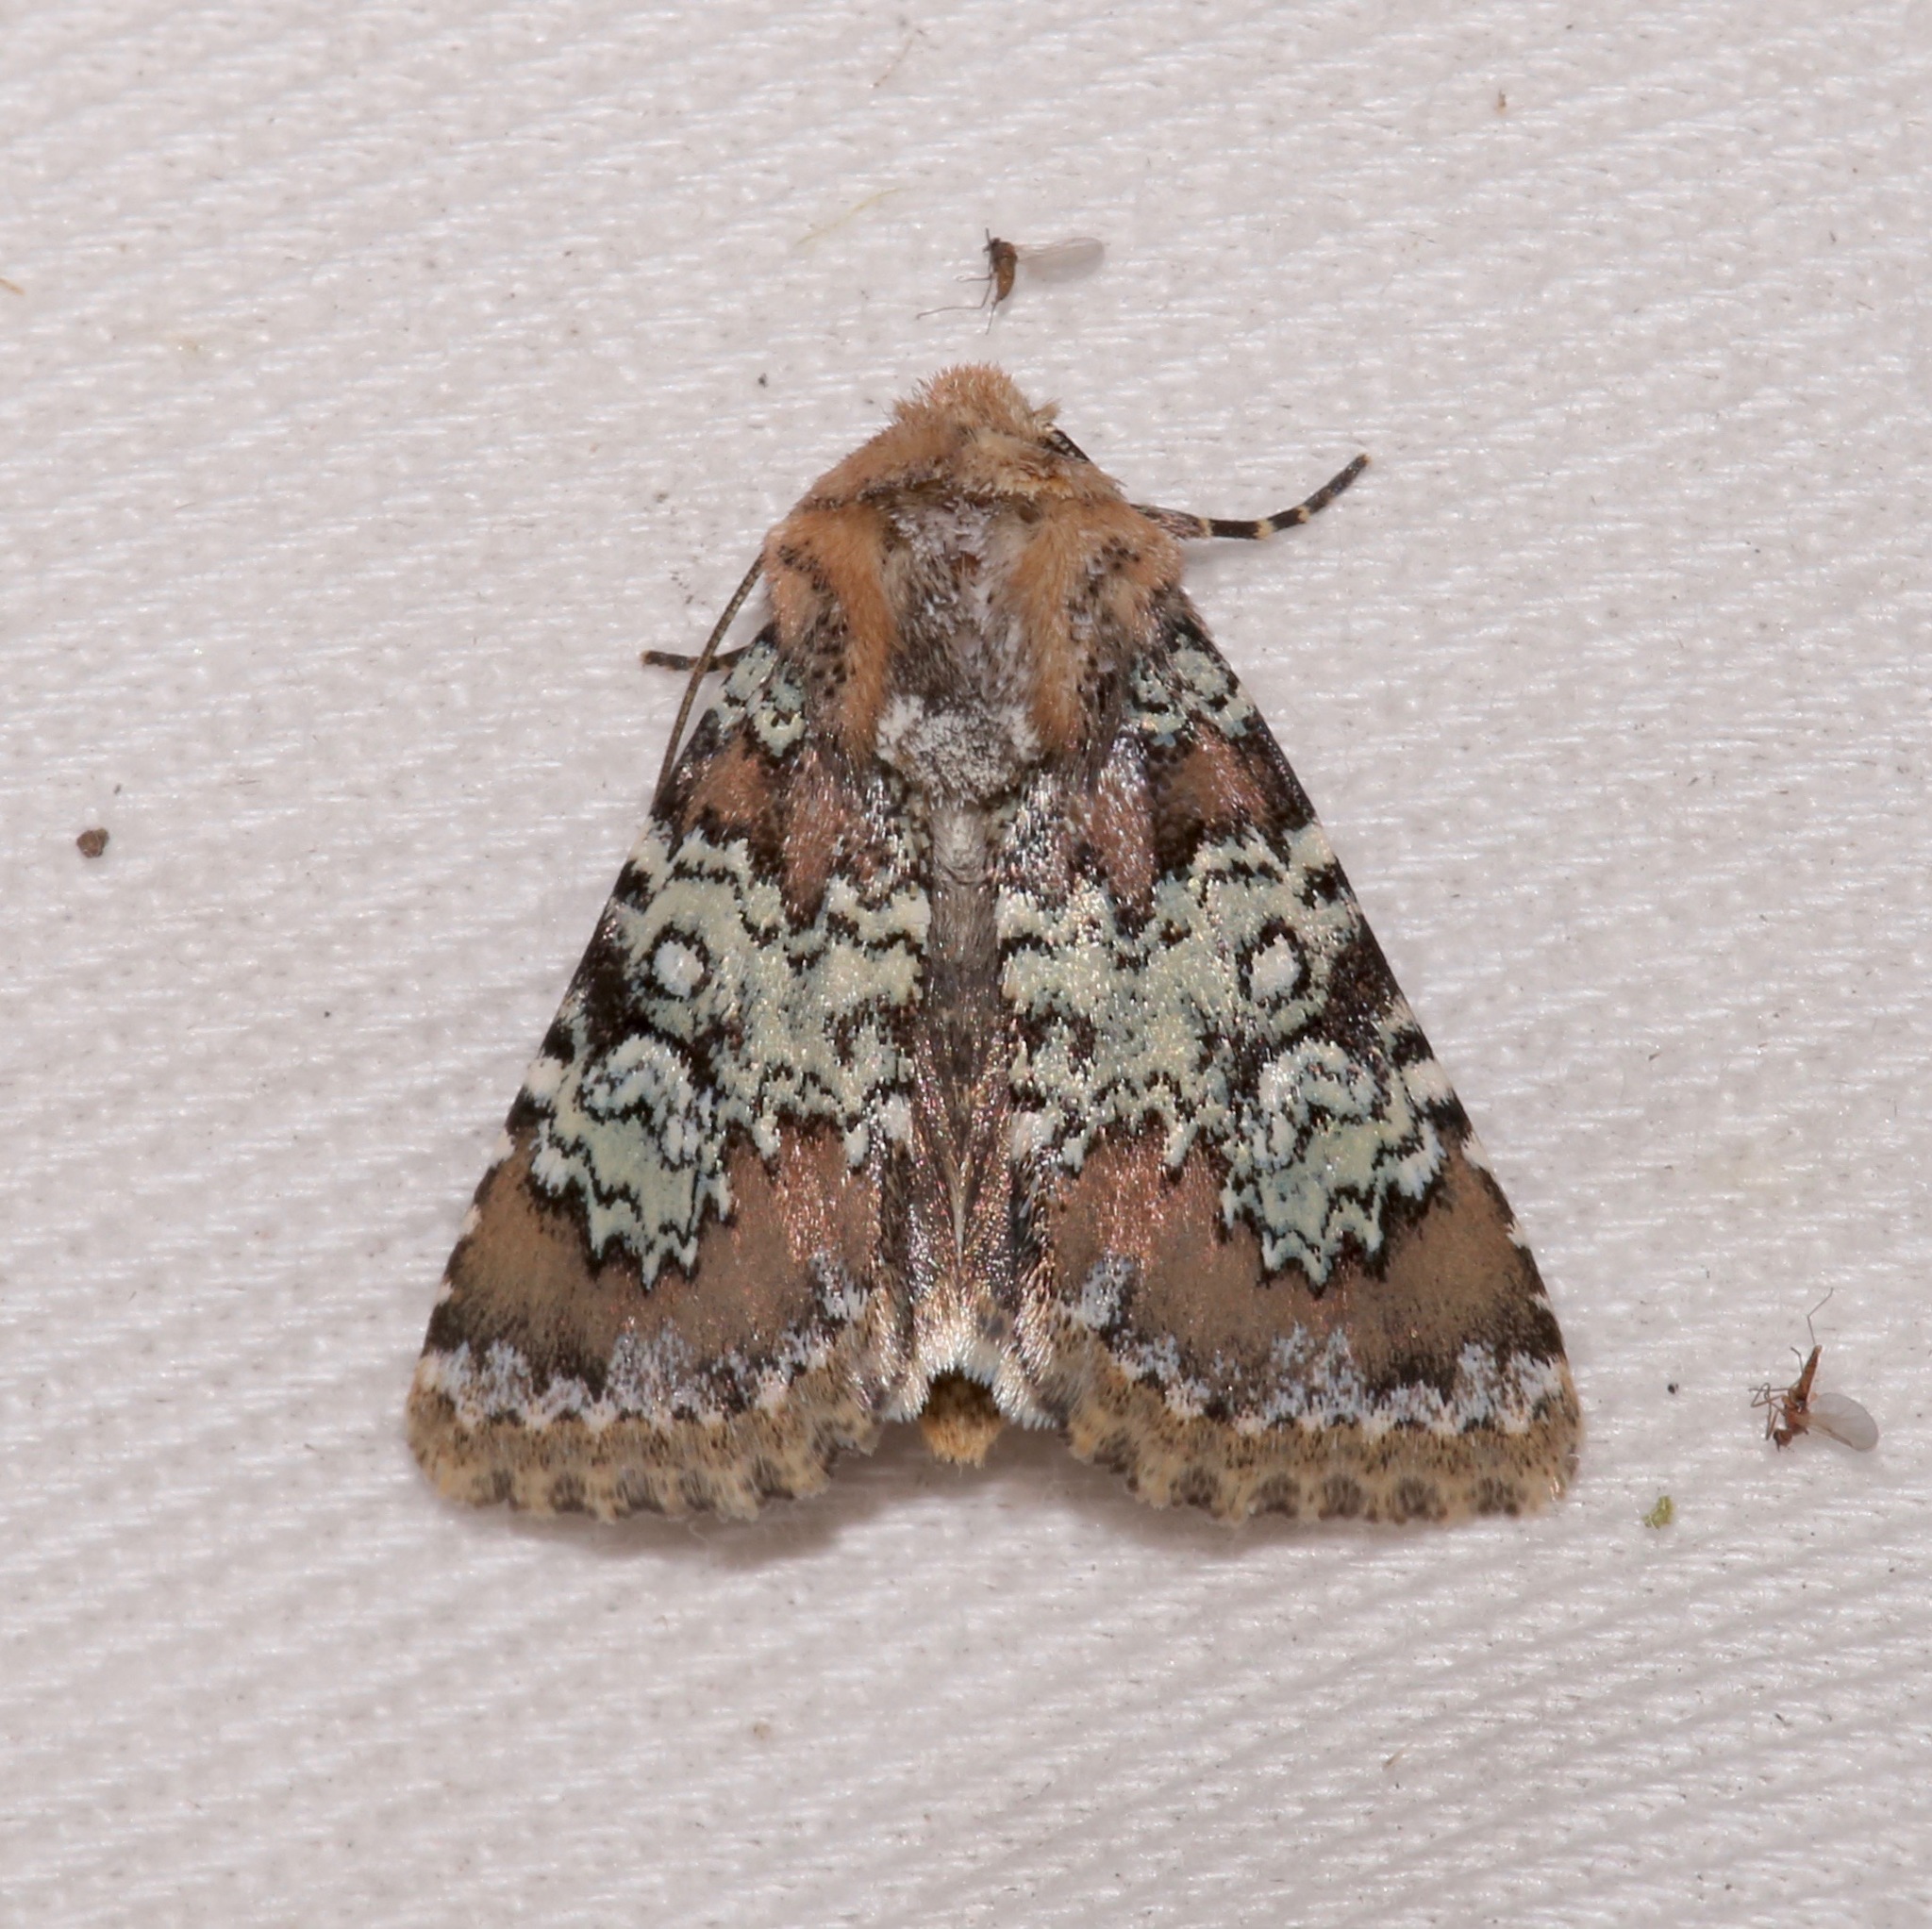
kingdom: Animalia
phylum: Arthropoda
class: Insecta
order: Lepidoptera
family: Noctuidae
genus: Hemibryomima
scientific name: Hemibryomima chryselectra
